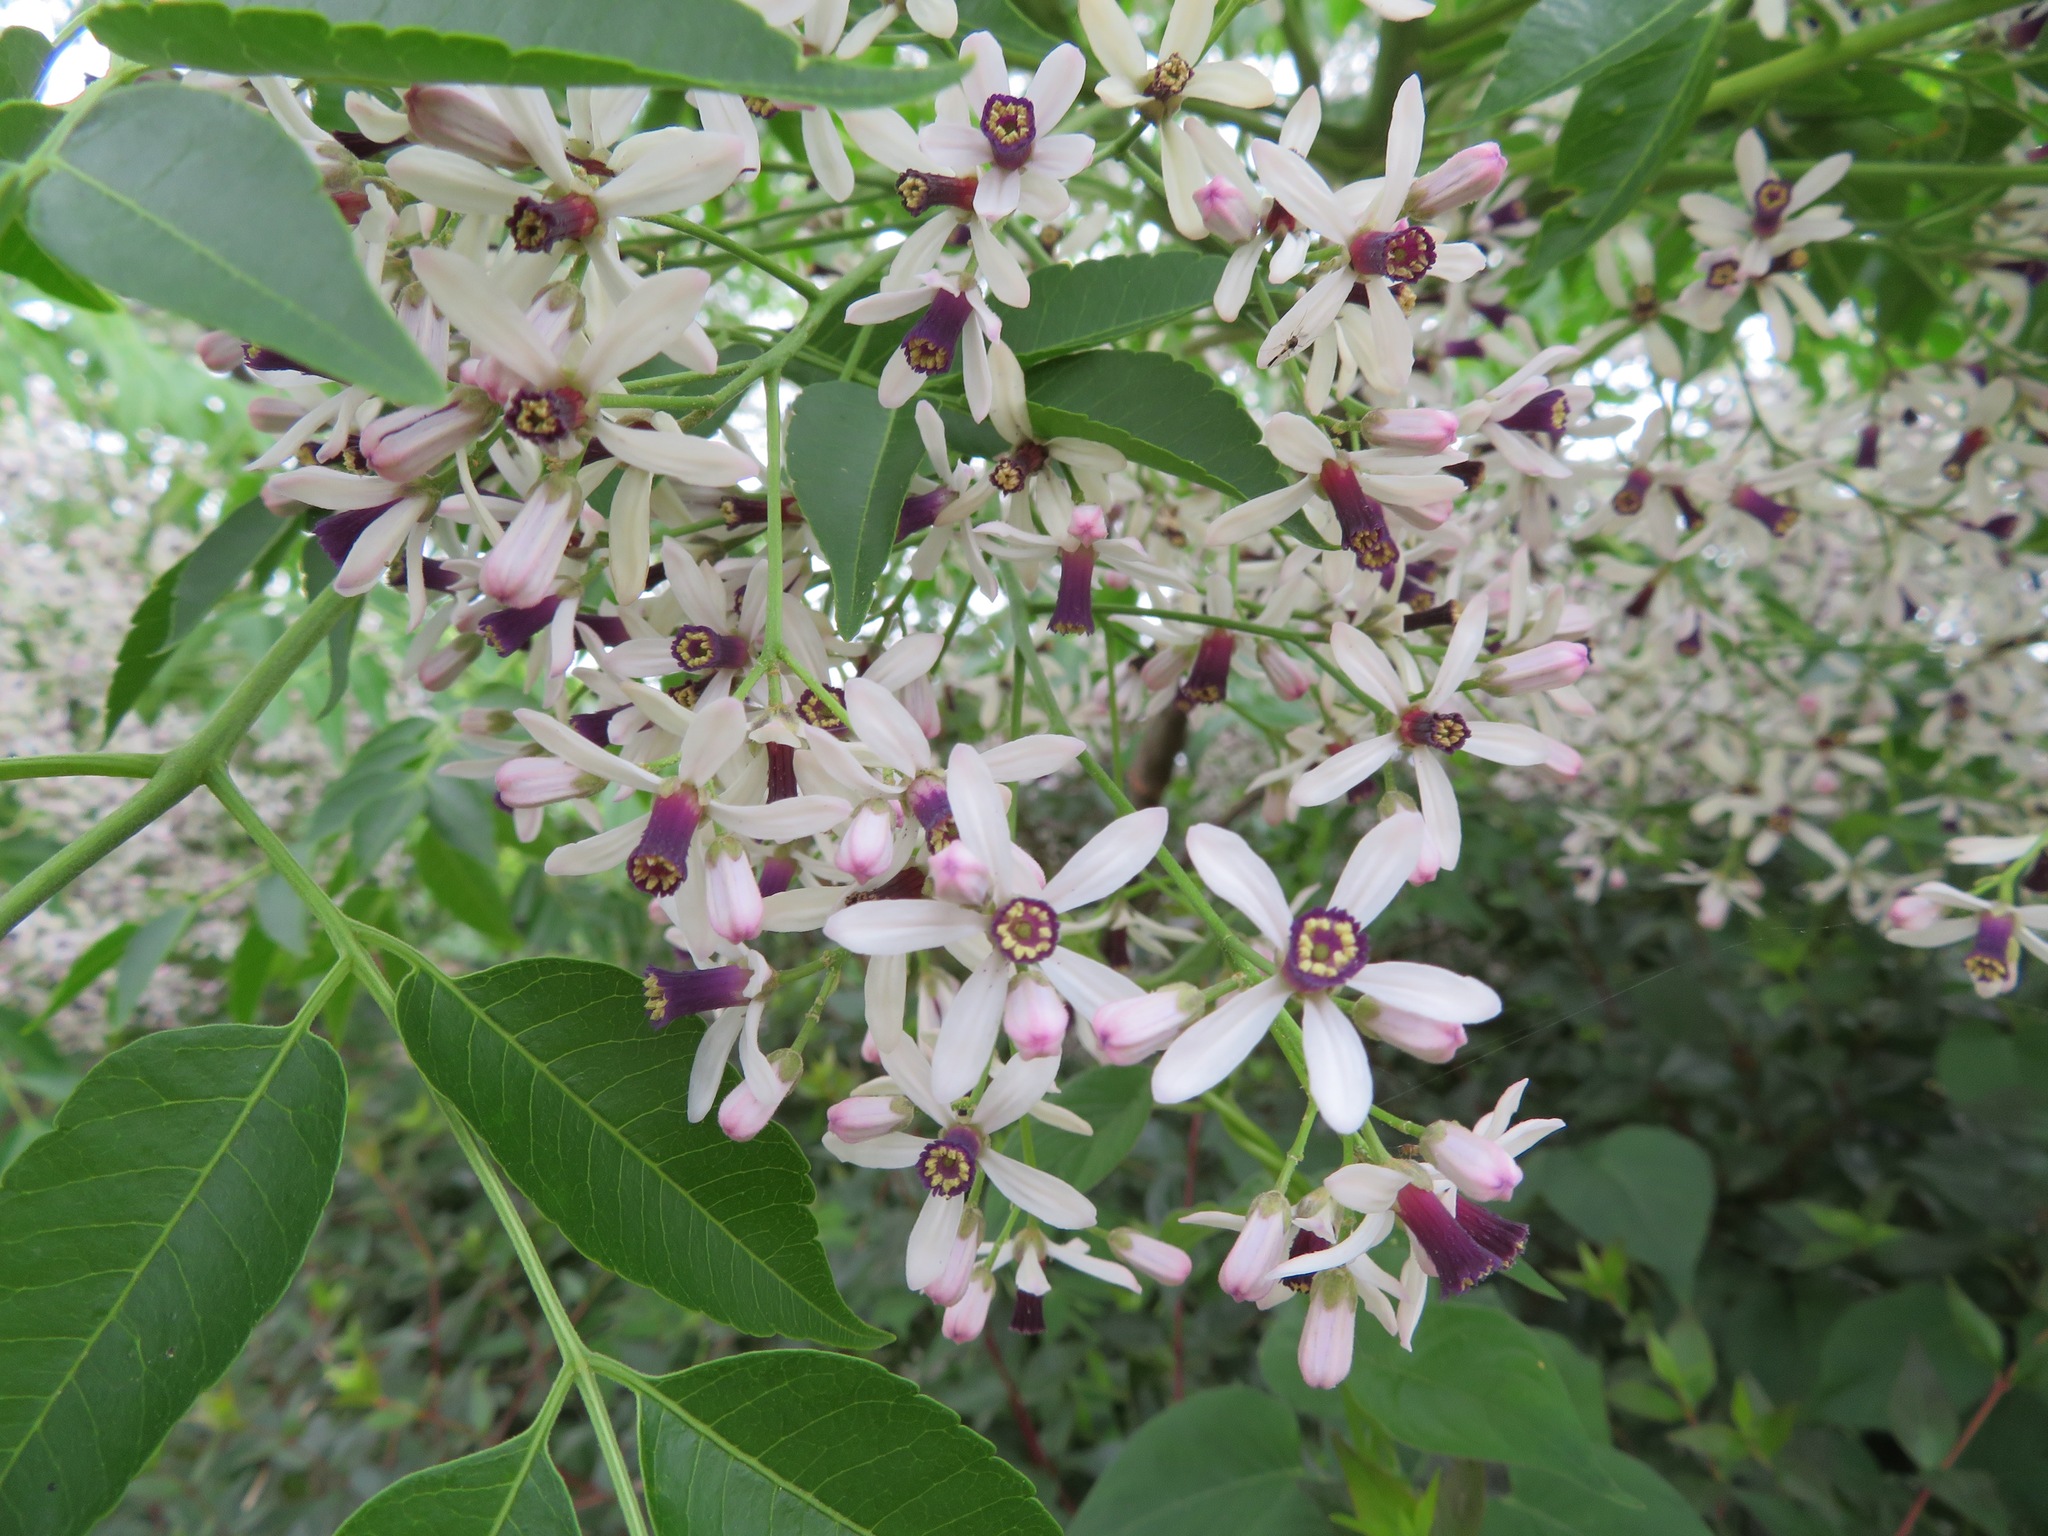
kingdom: Plantae
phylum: Tracheophyta
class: Magnoliopsida
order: Sapindales
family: Meliaceae
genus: Melia
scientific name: Melia azedarach
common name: Chinaberrytree
